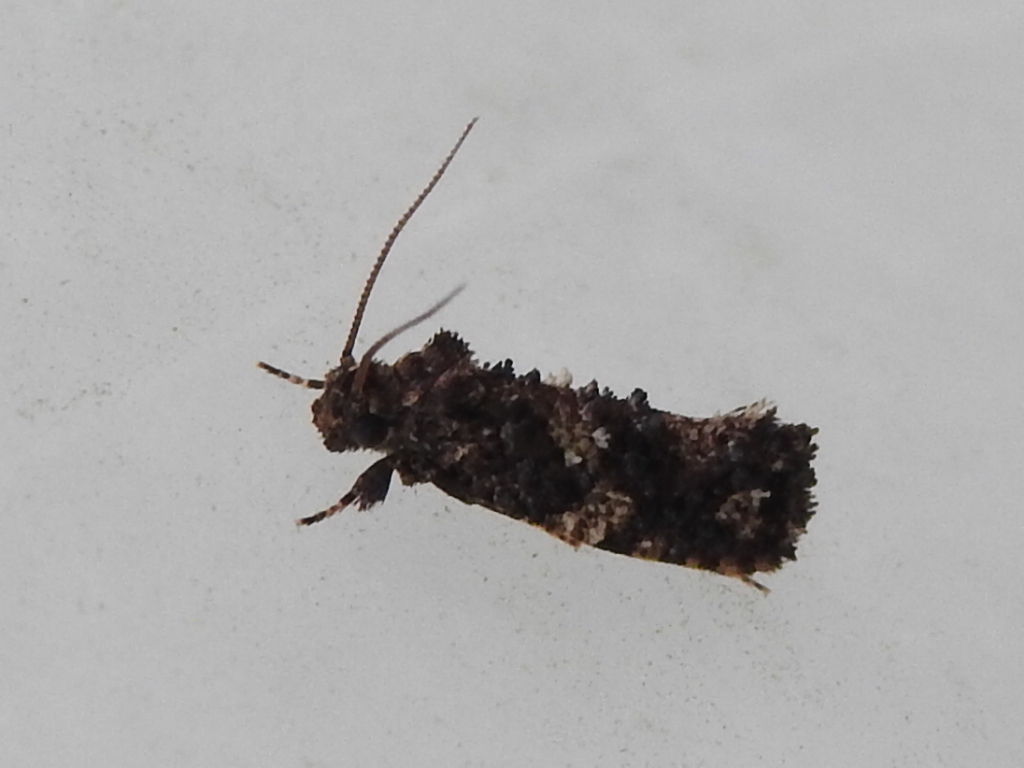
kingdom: Animalia
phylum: Arthropoda
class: Insecta
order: Lepidoptera
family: Tineidae
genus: Acrolophus
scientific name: Acrolophus cressoni
